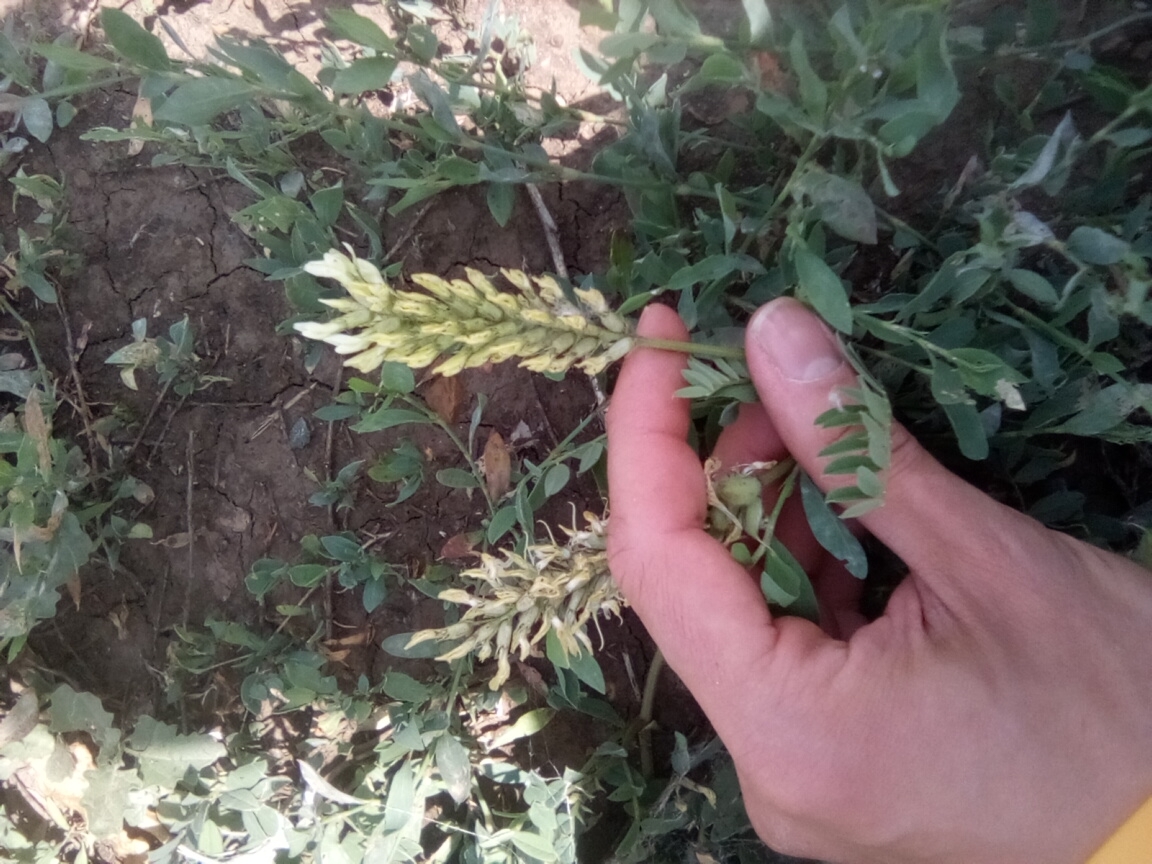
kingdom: Plantae
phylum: Tracheophyta
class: Magnoliopsida
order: Fabales
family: Fabaceae
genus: Astragalus
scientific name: Astragalus cicer
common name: Chick-pea milk-vetch
